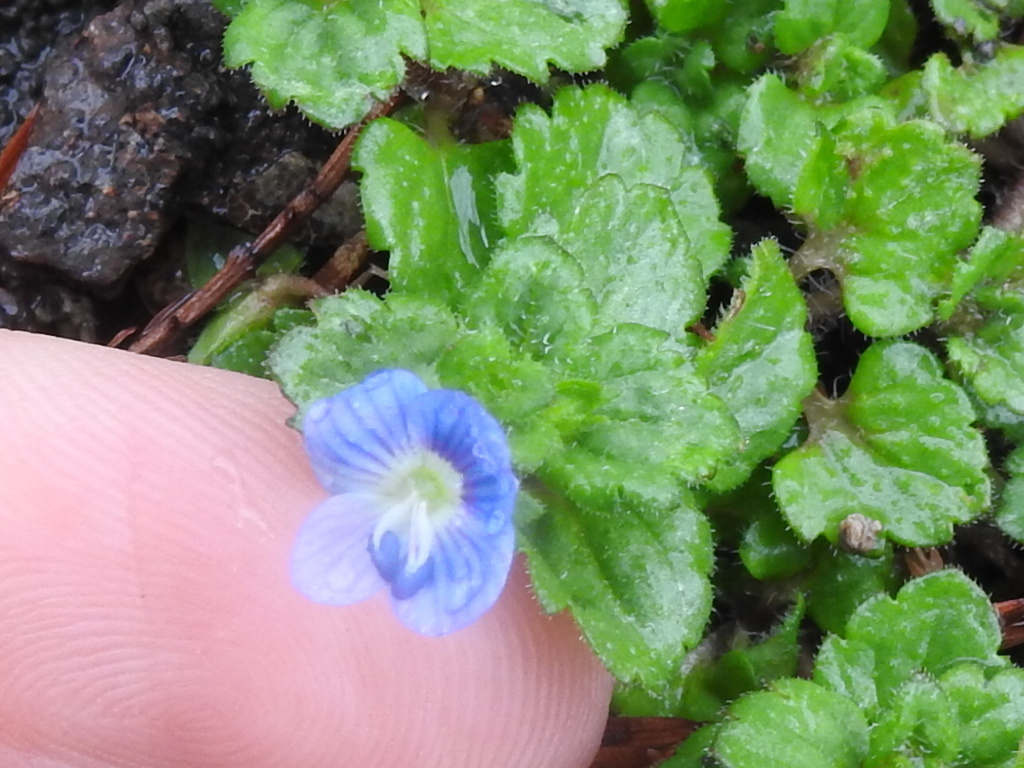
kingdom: Plantae
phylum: Tracheophyta
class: Magnoliopsida
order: Lamiales
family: Plantaginaceae
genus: Veronica
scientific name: Veronica persica
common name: Common field-speedwell
